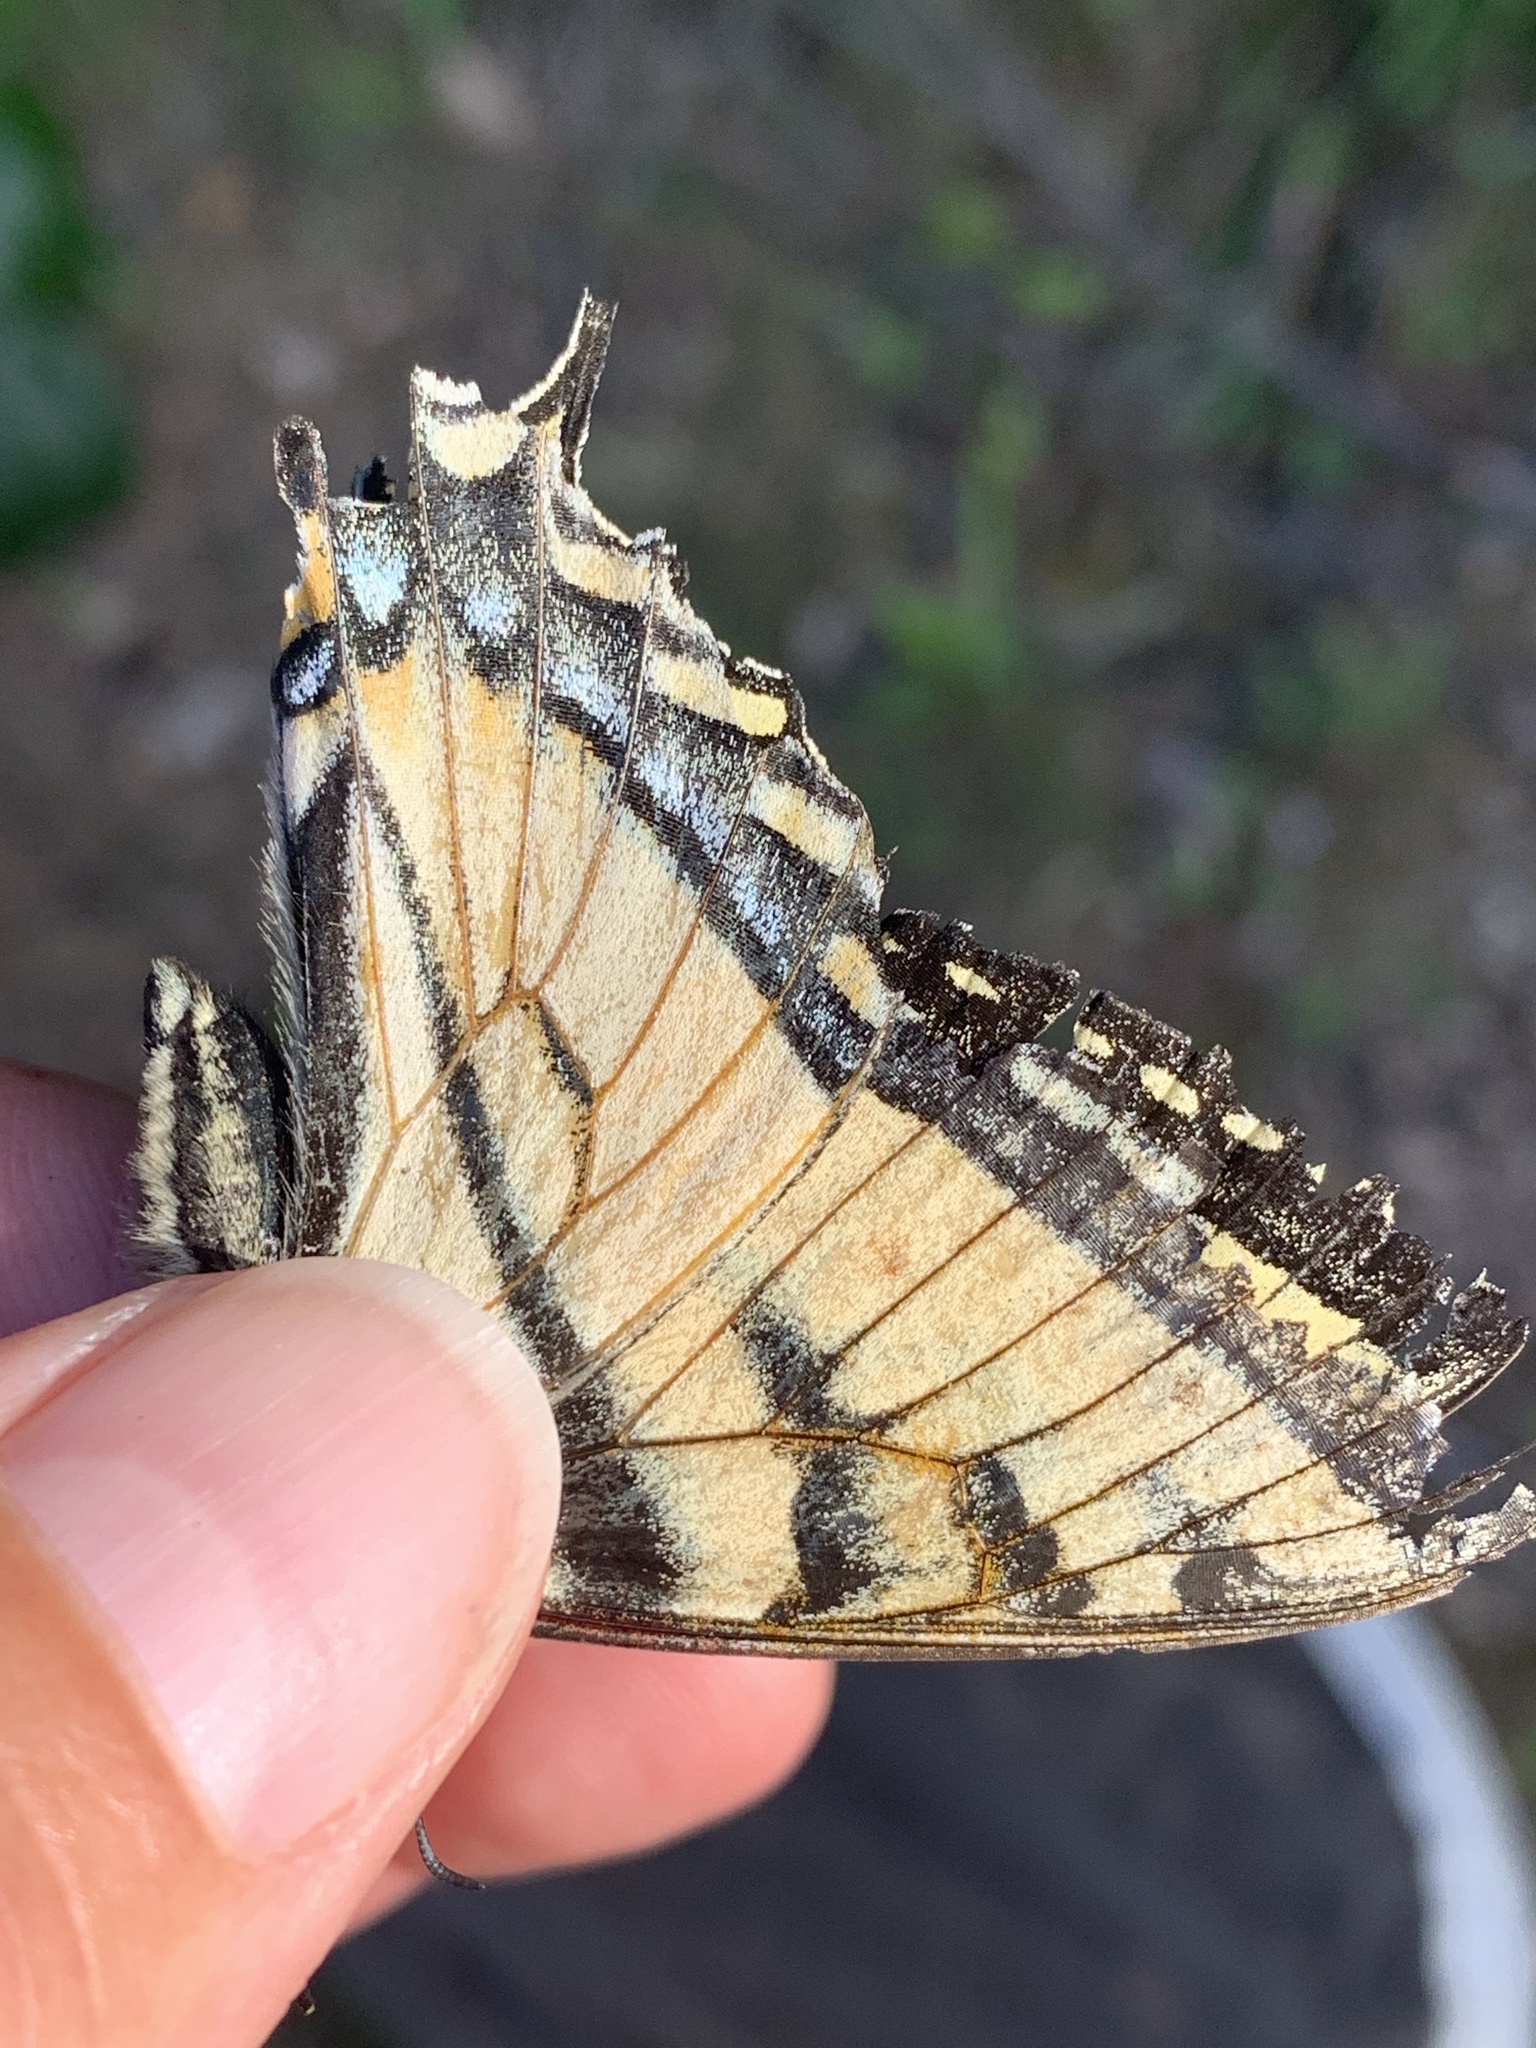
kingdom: Animalia
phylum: Arthropoda
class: Insecta
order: Lepidoptera
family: Papilionidae
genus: Papilio
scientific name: Papilio canadensis
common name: Canadian tiger swallowtail
